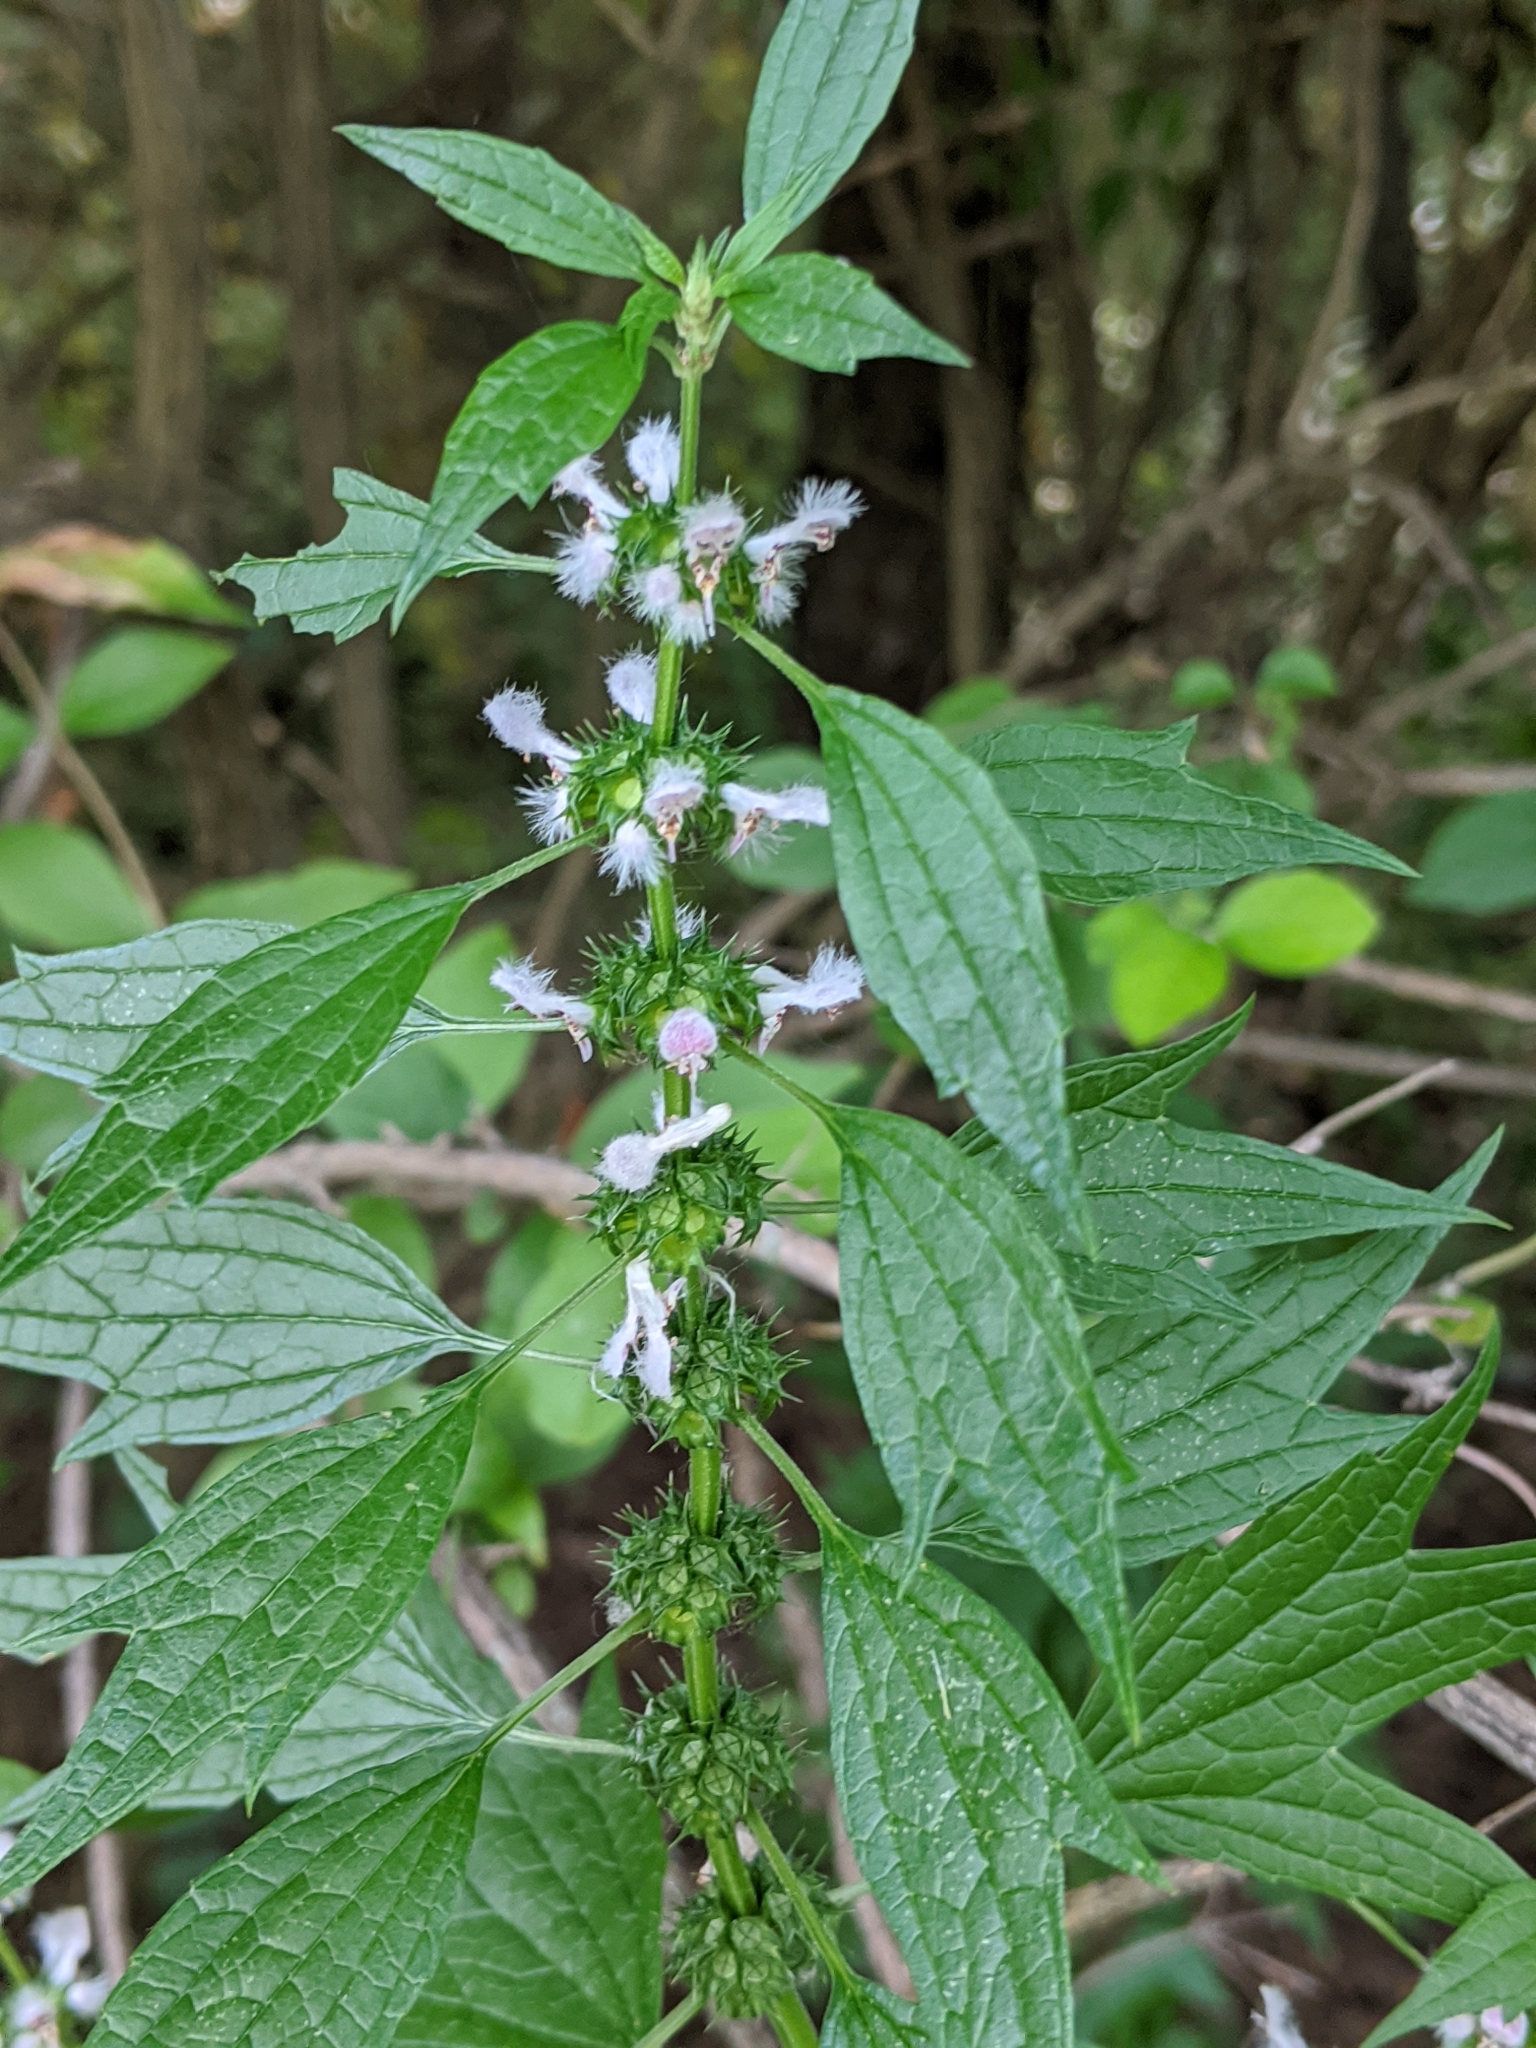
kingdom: Plantae
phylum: Tracheophyta
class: Magnoliopsida
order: Lamiales
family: Lamiaceae
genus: Leonurus
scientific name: Leonurus cardiaca
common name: Motherwort
